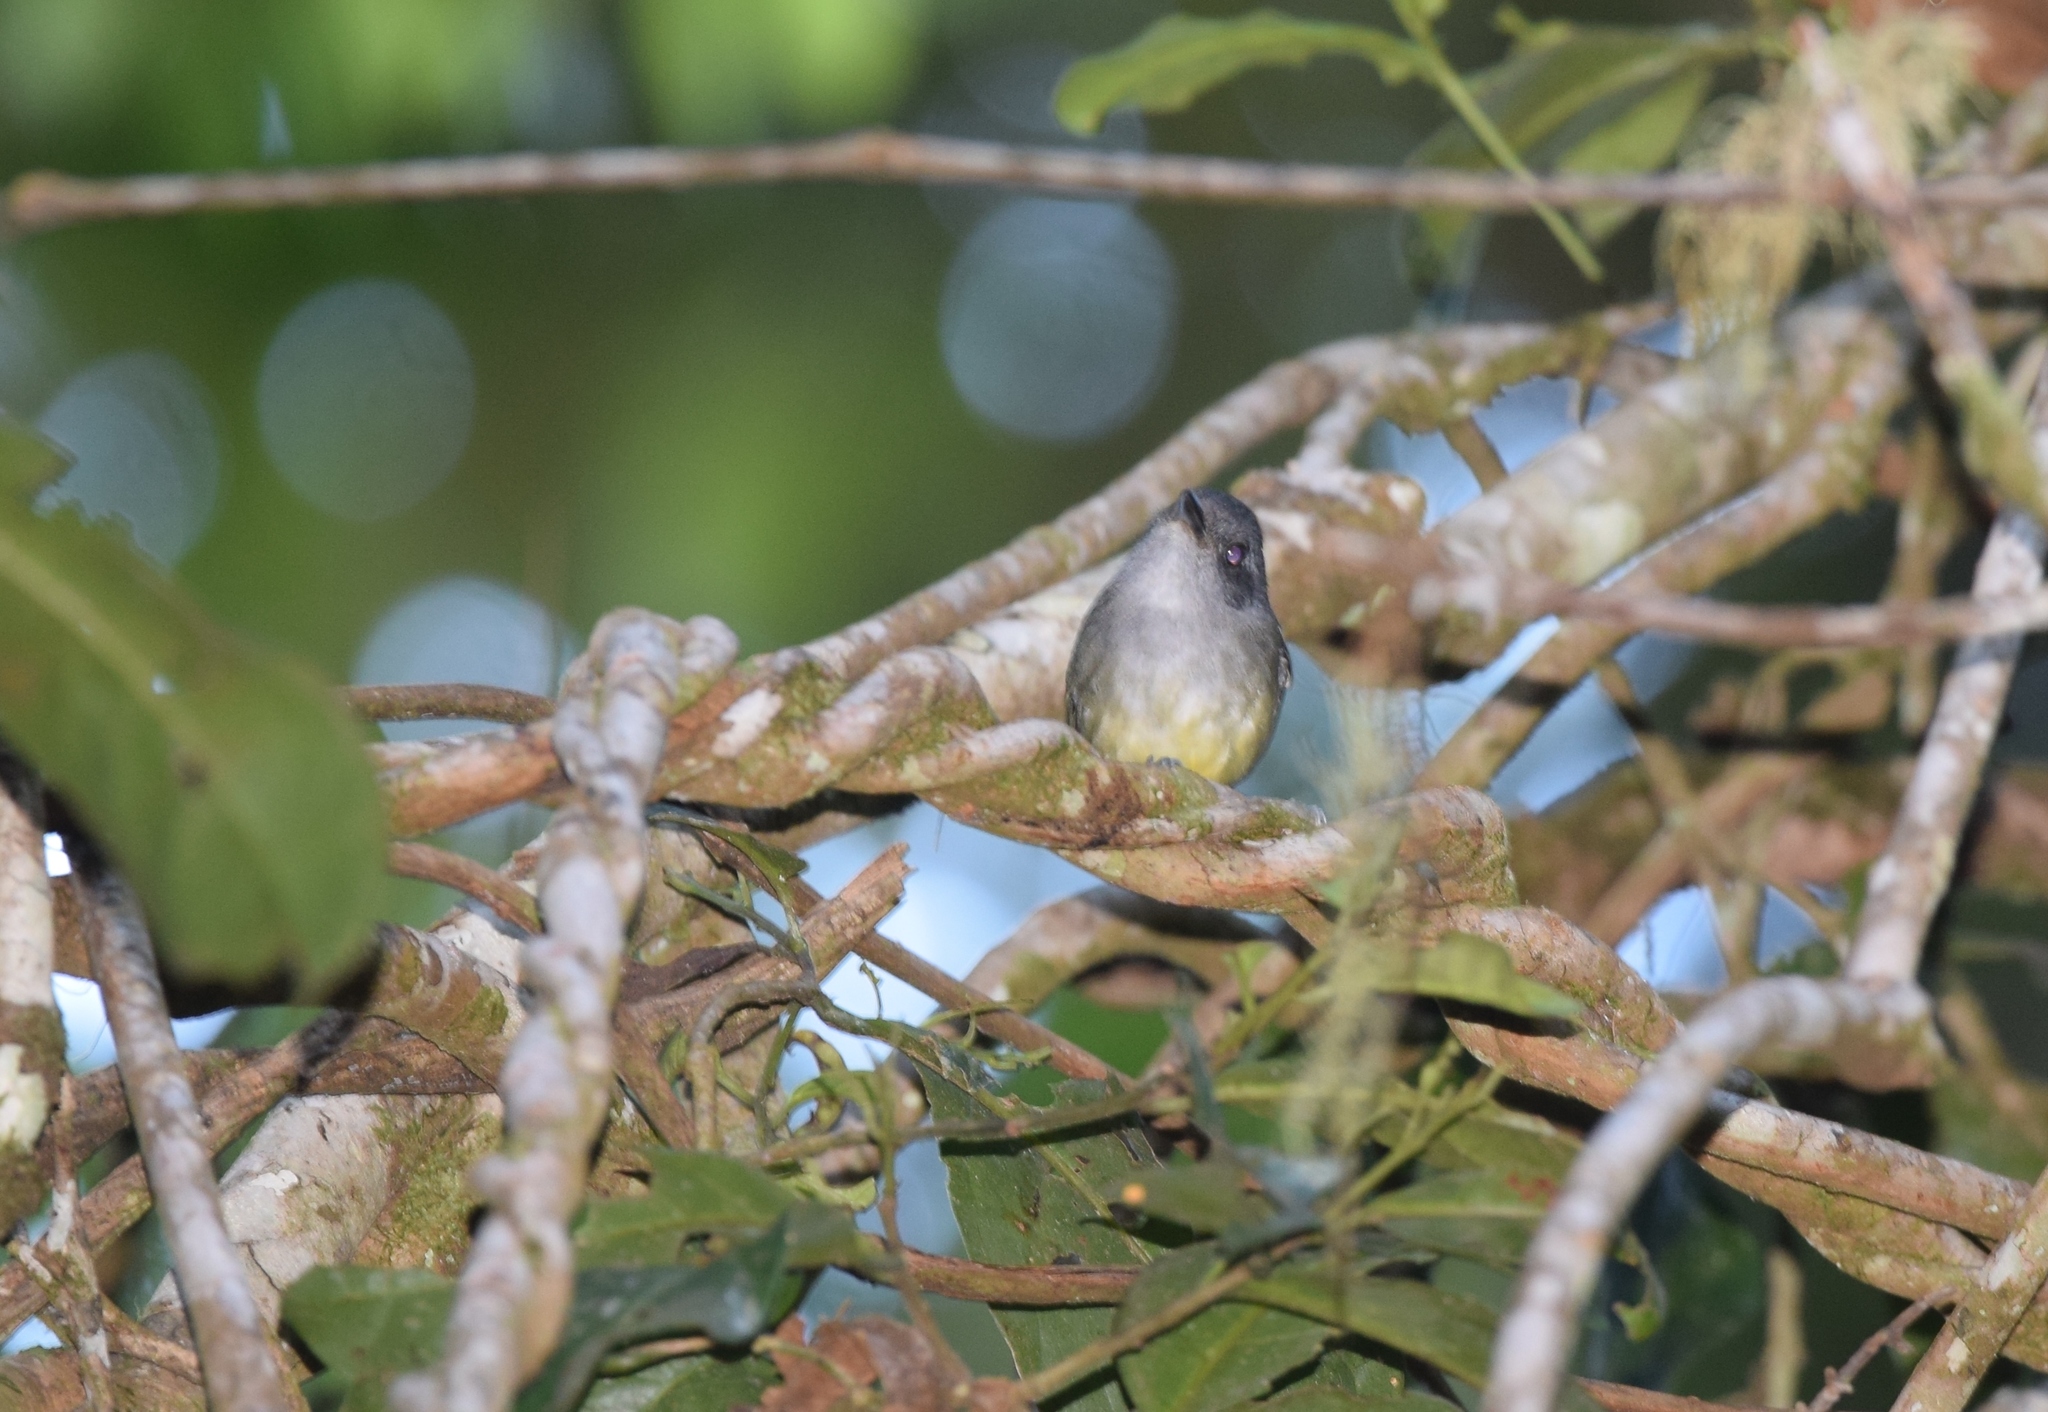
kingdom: Animalia
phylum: Chordata
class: Aves
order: Passeriformes
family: Thamnophilidae
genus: Dysithamnus
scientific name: Dysithamnus mentalis
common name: Plain antvireo
